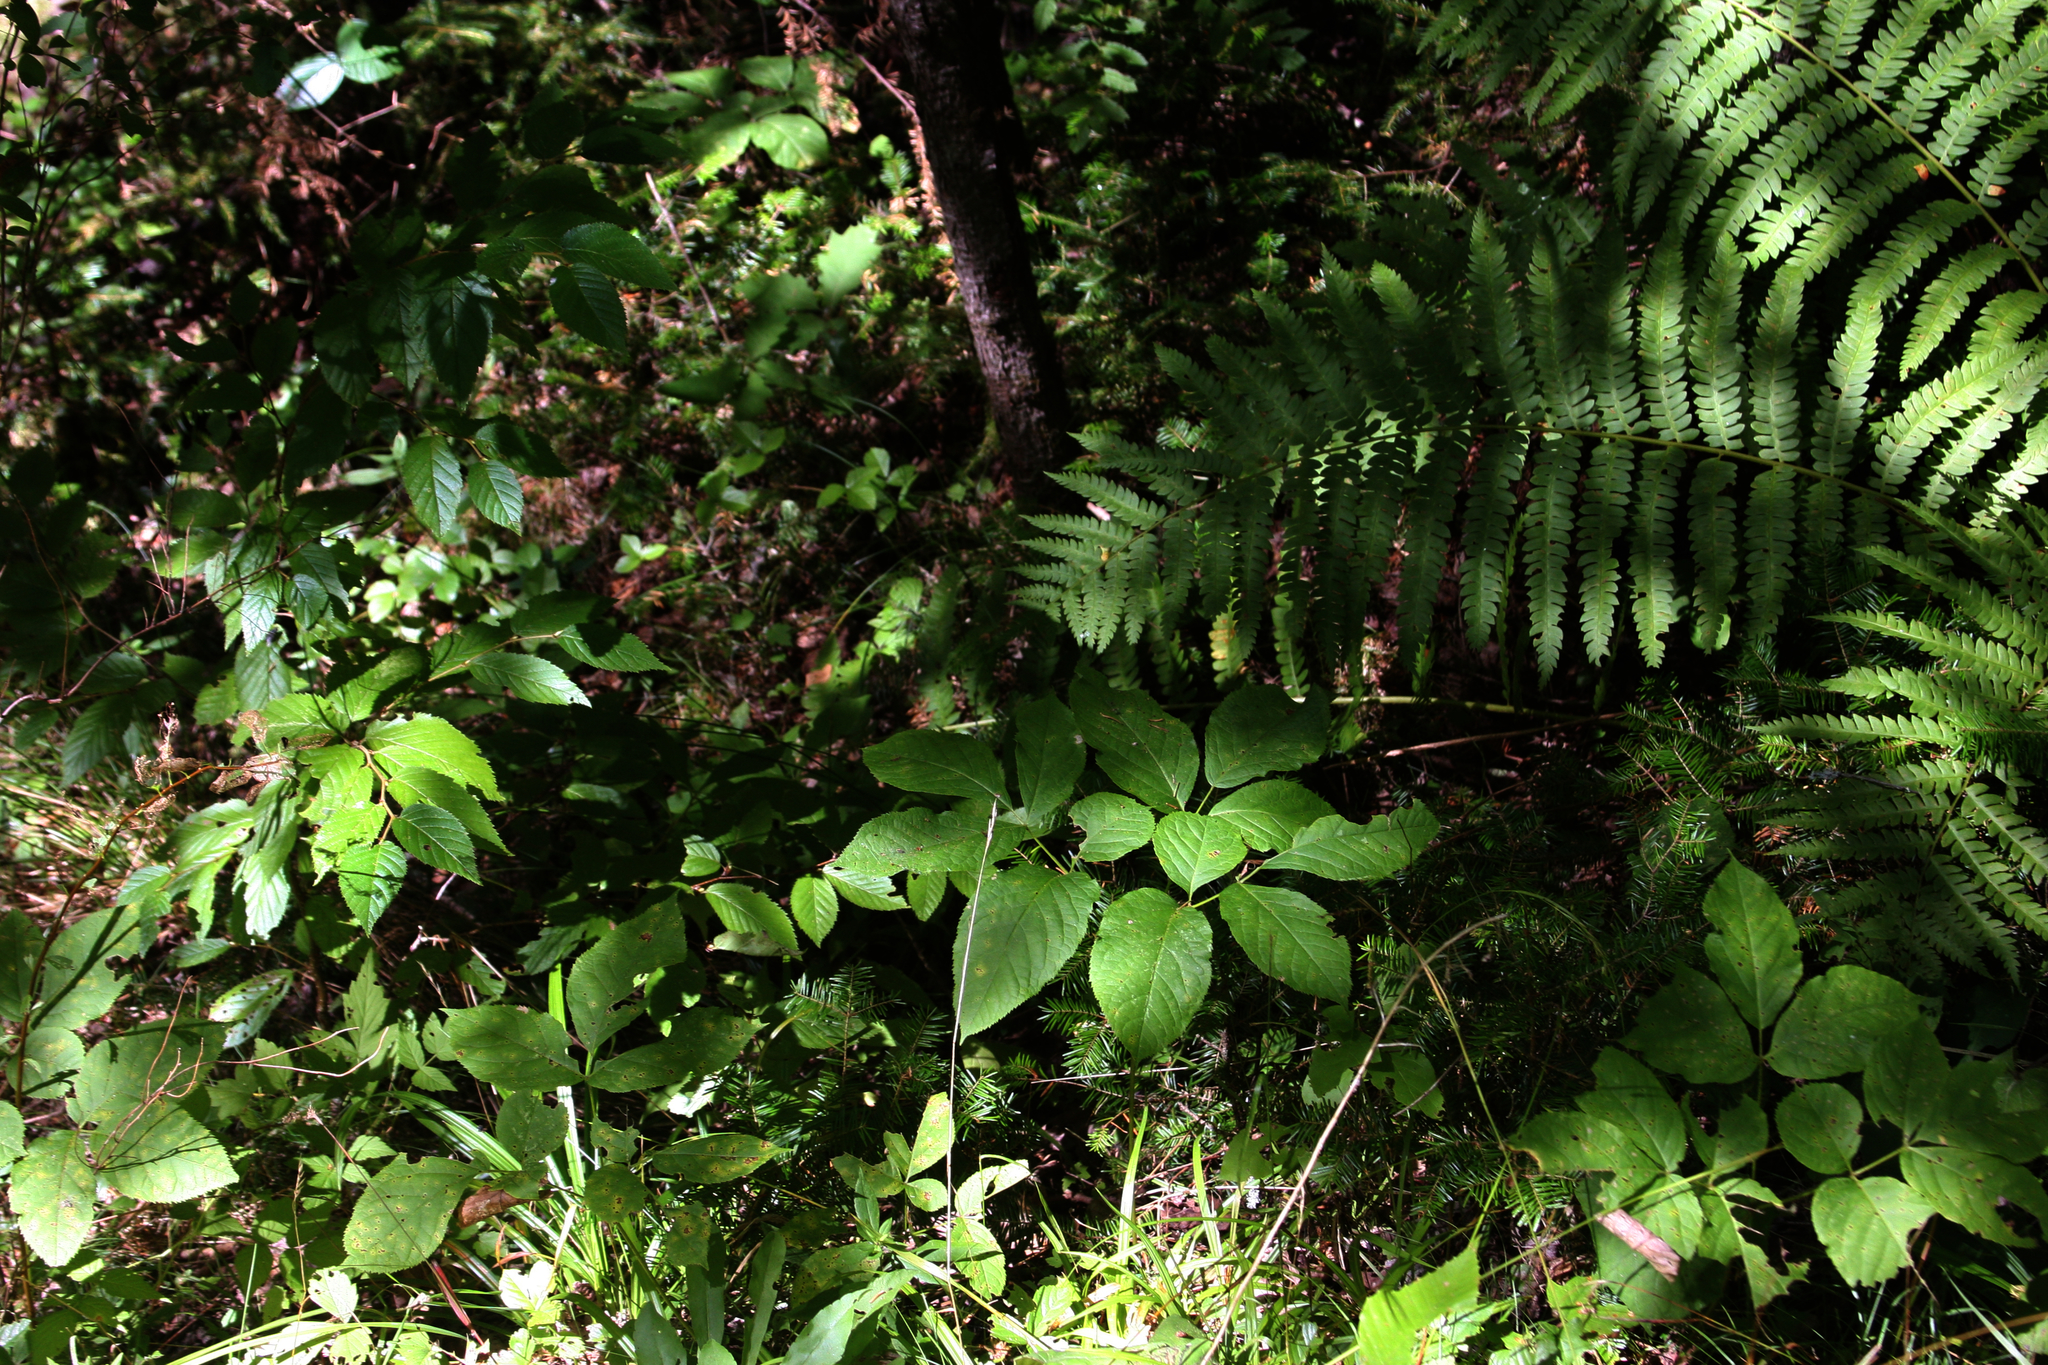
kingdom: Plantae
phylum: Tracheophyta
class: Magnoliopsida
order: Apiales
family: Araliaceae
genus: Aralia
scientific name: Aralia nudicaulis
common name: Wild sarsaparilla
